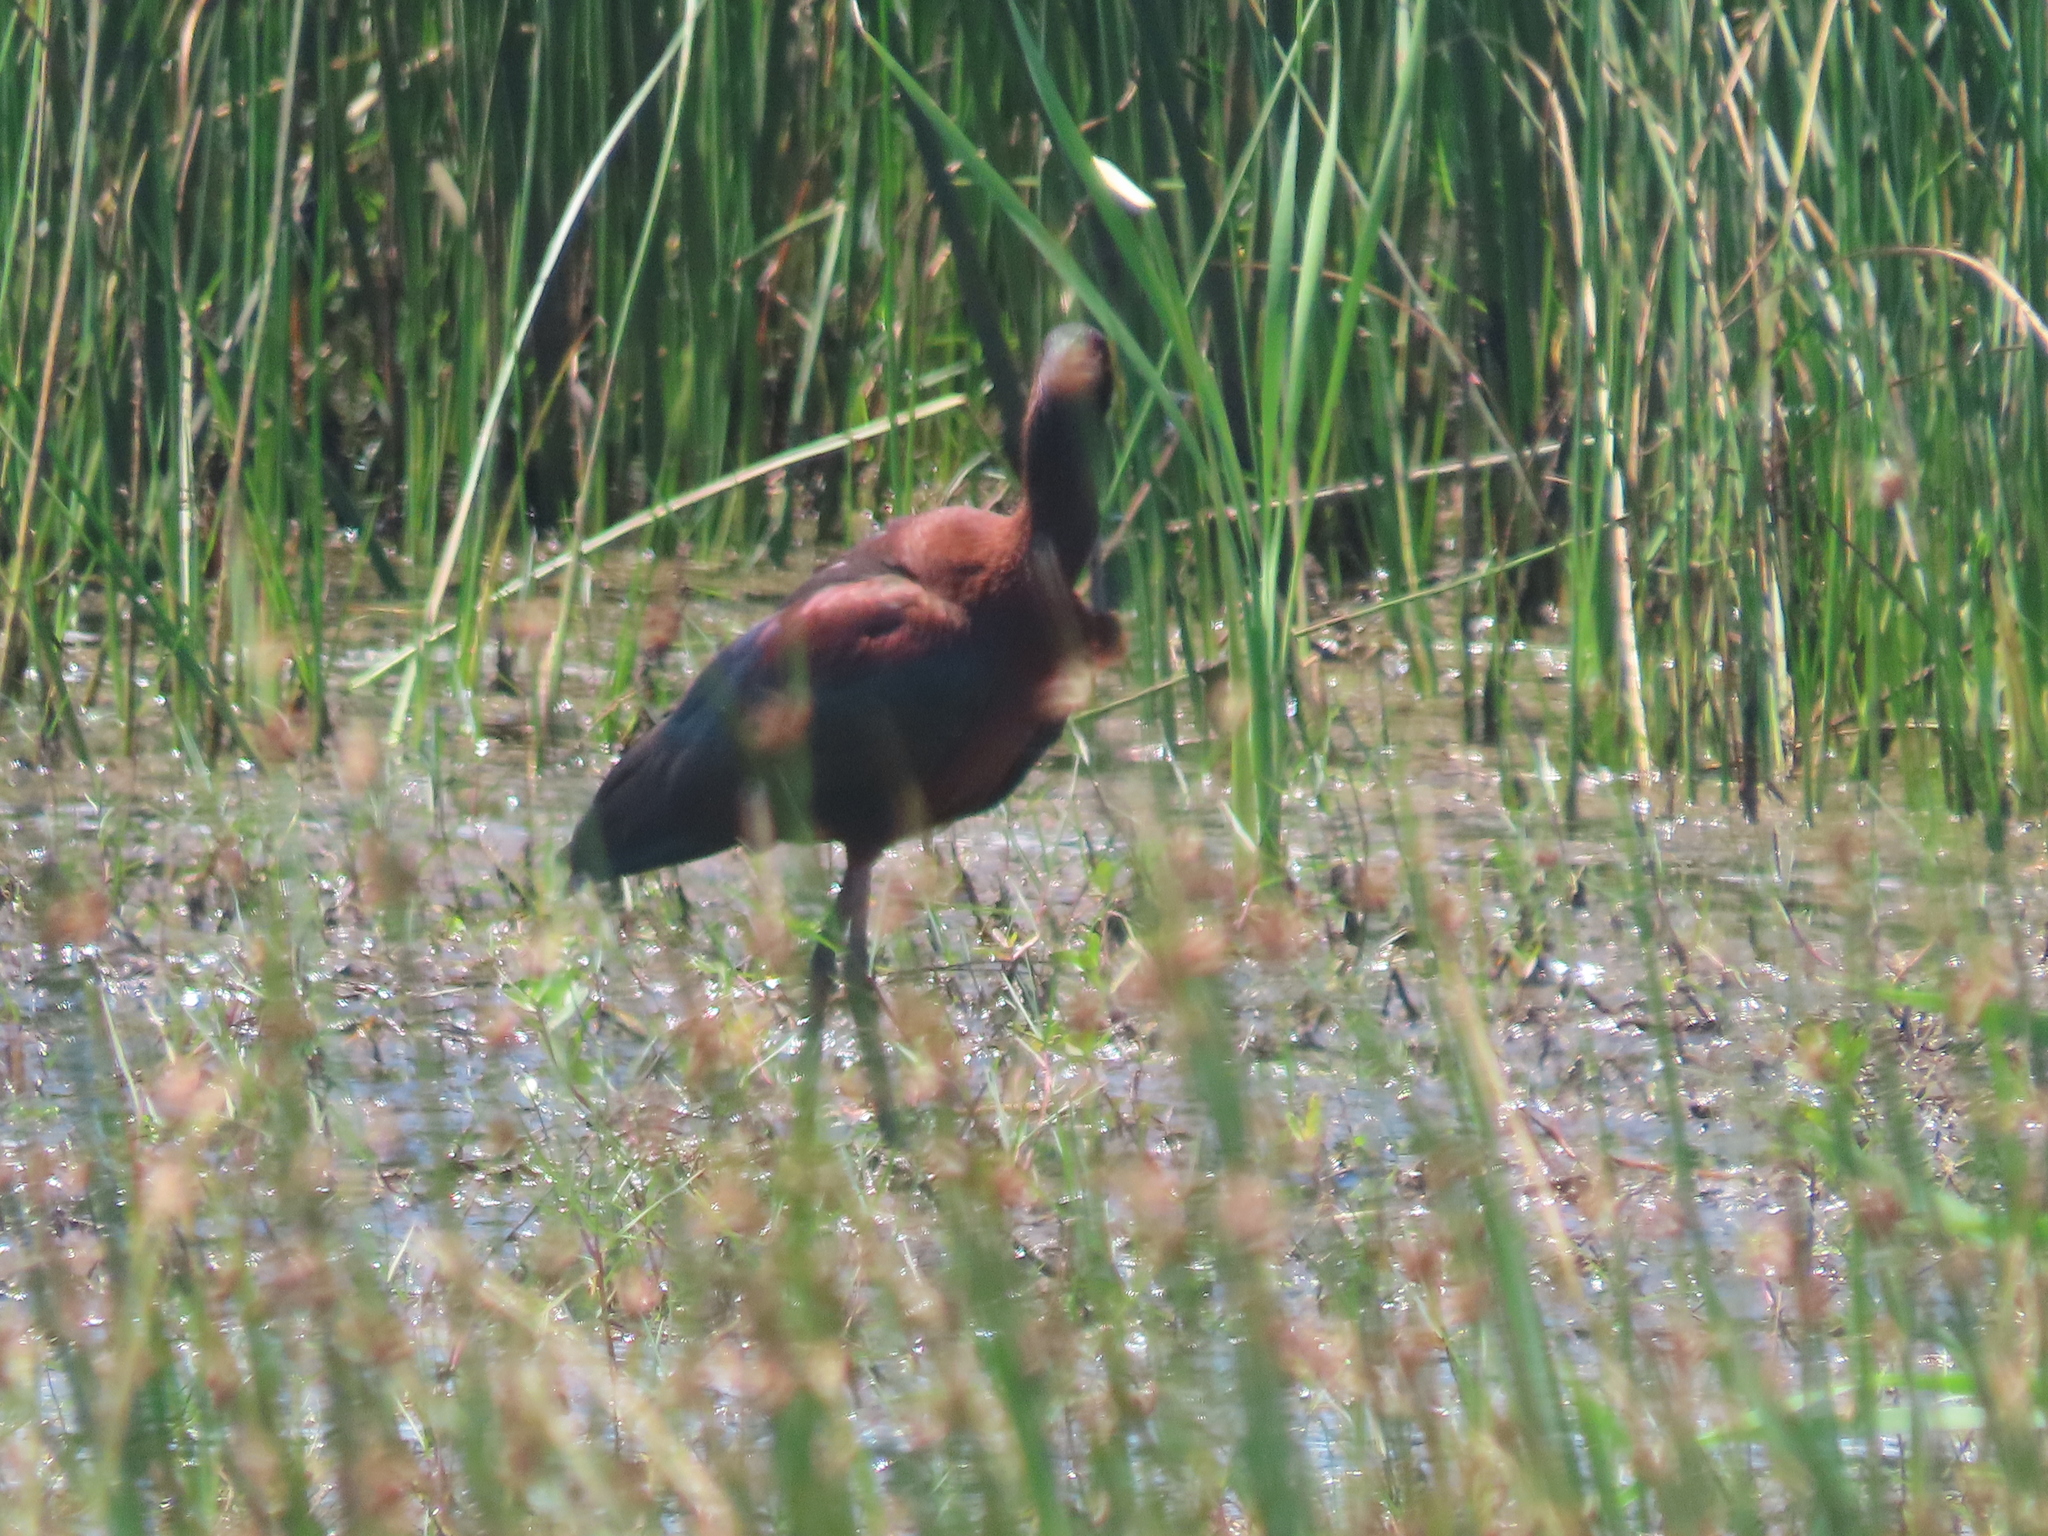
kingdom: Animalia
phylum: Chordata
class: Aves
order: Pelecaniformes
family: Threskiornithidae
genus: Plegadis
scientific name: Plegadis chihi
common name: White-faced ibis
